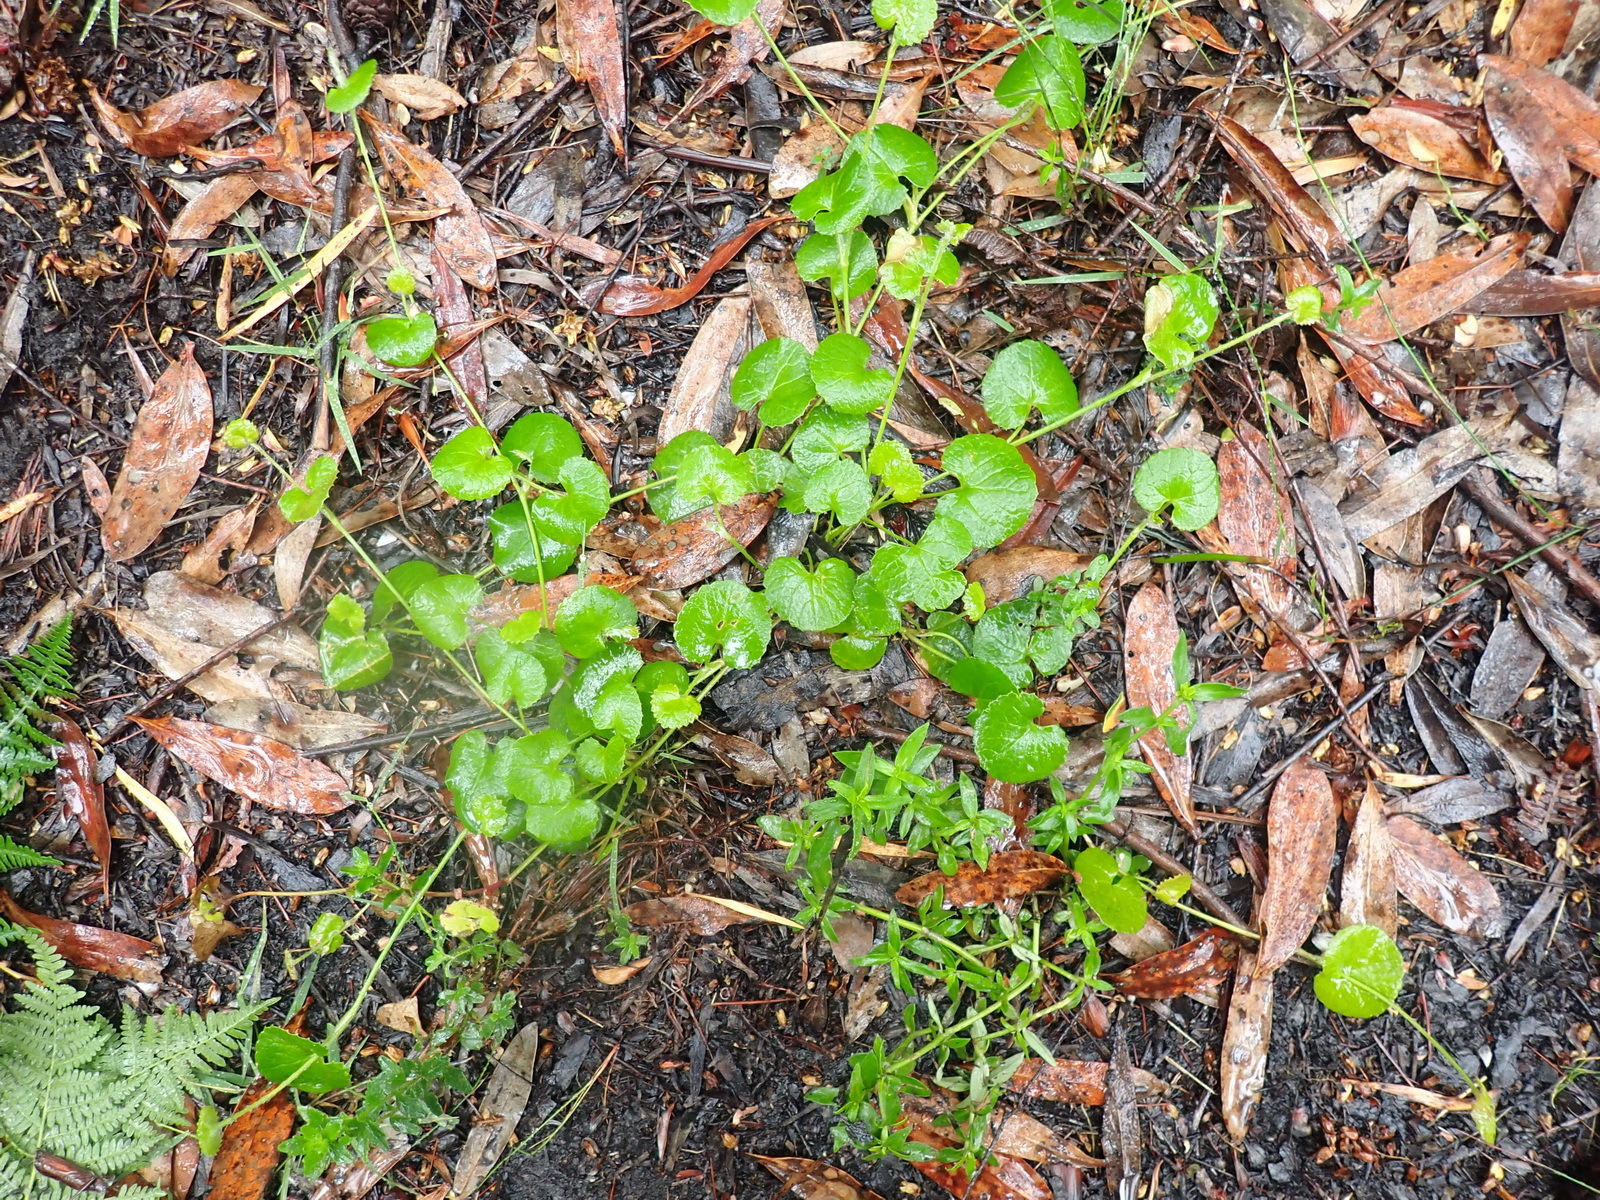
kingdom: Plantae
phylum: Tracheophyta
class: Magnoliopsida
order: Apiales
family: Apiaceae
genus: Centella
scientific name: Centella eriantha
